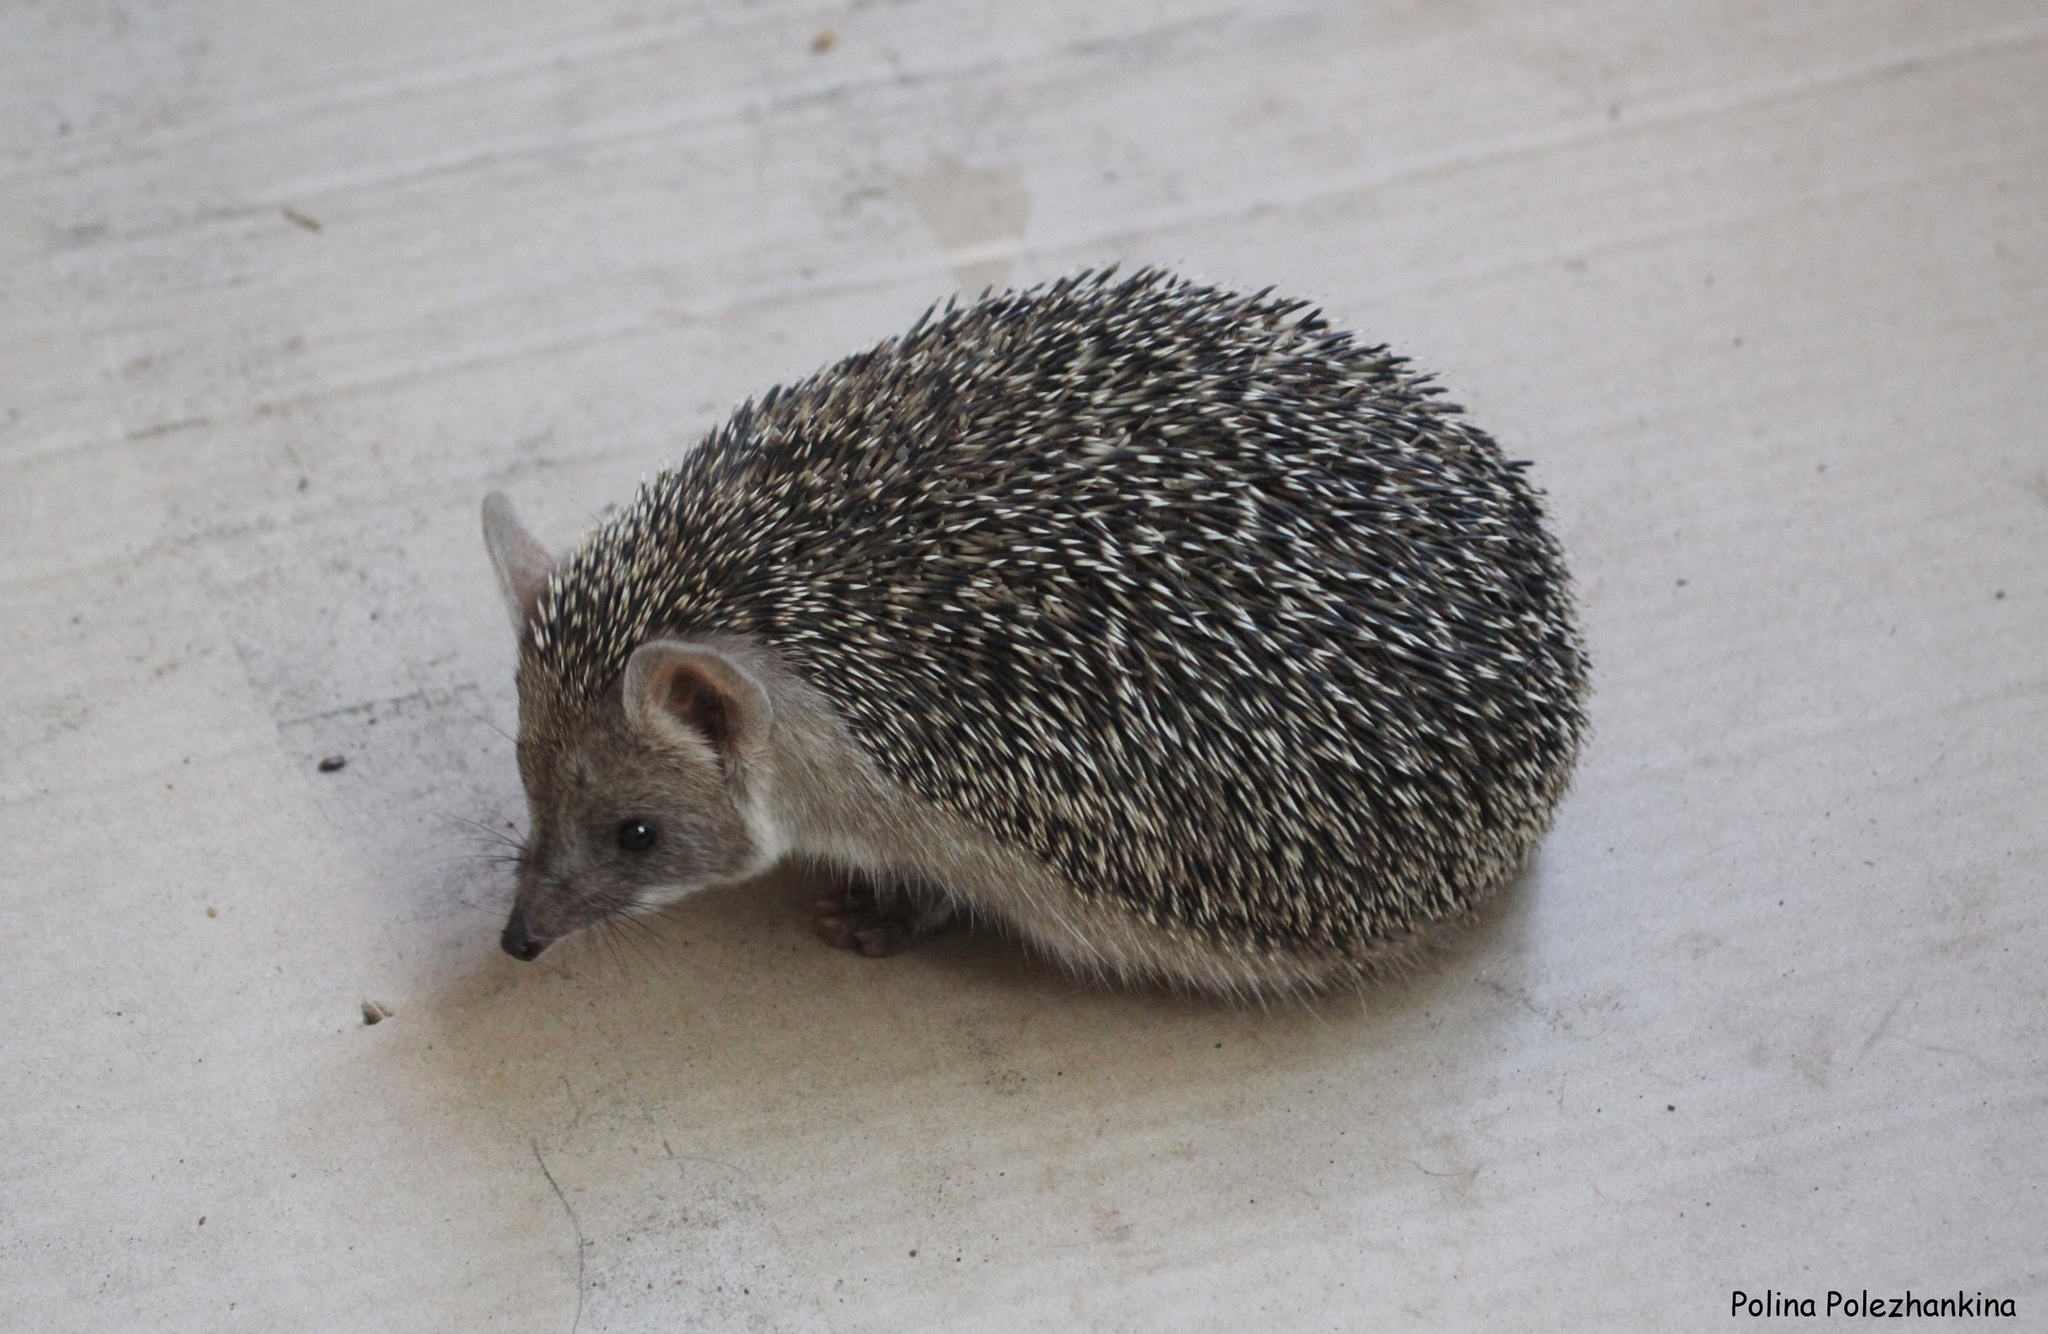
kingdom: Animalia
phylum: Chordata
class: Mammalia
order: Erinaceomorpha
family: Erinaceidae
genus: Hemiechinus
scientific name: Hemiechinus auritus
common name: Long-eared hedgehog
